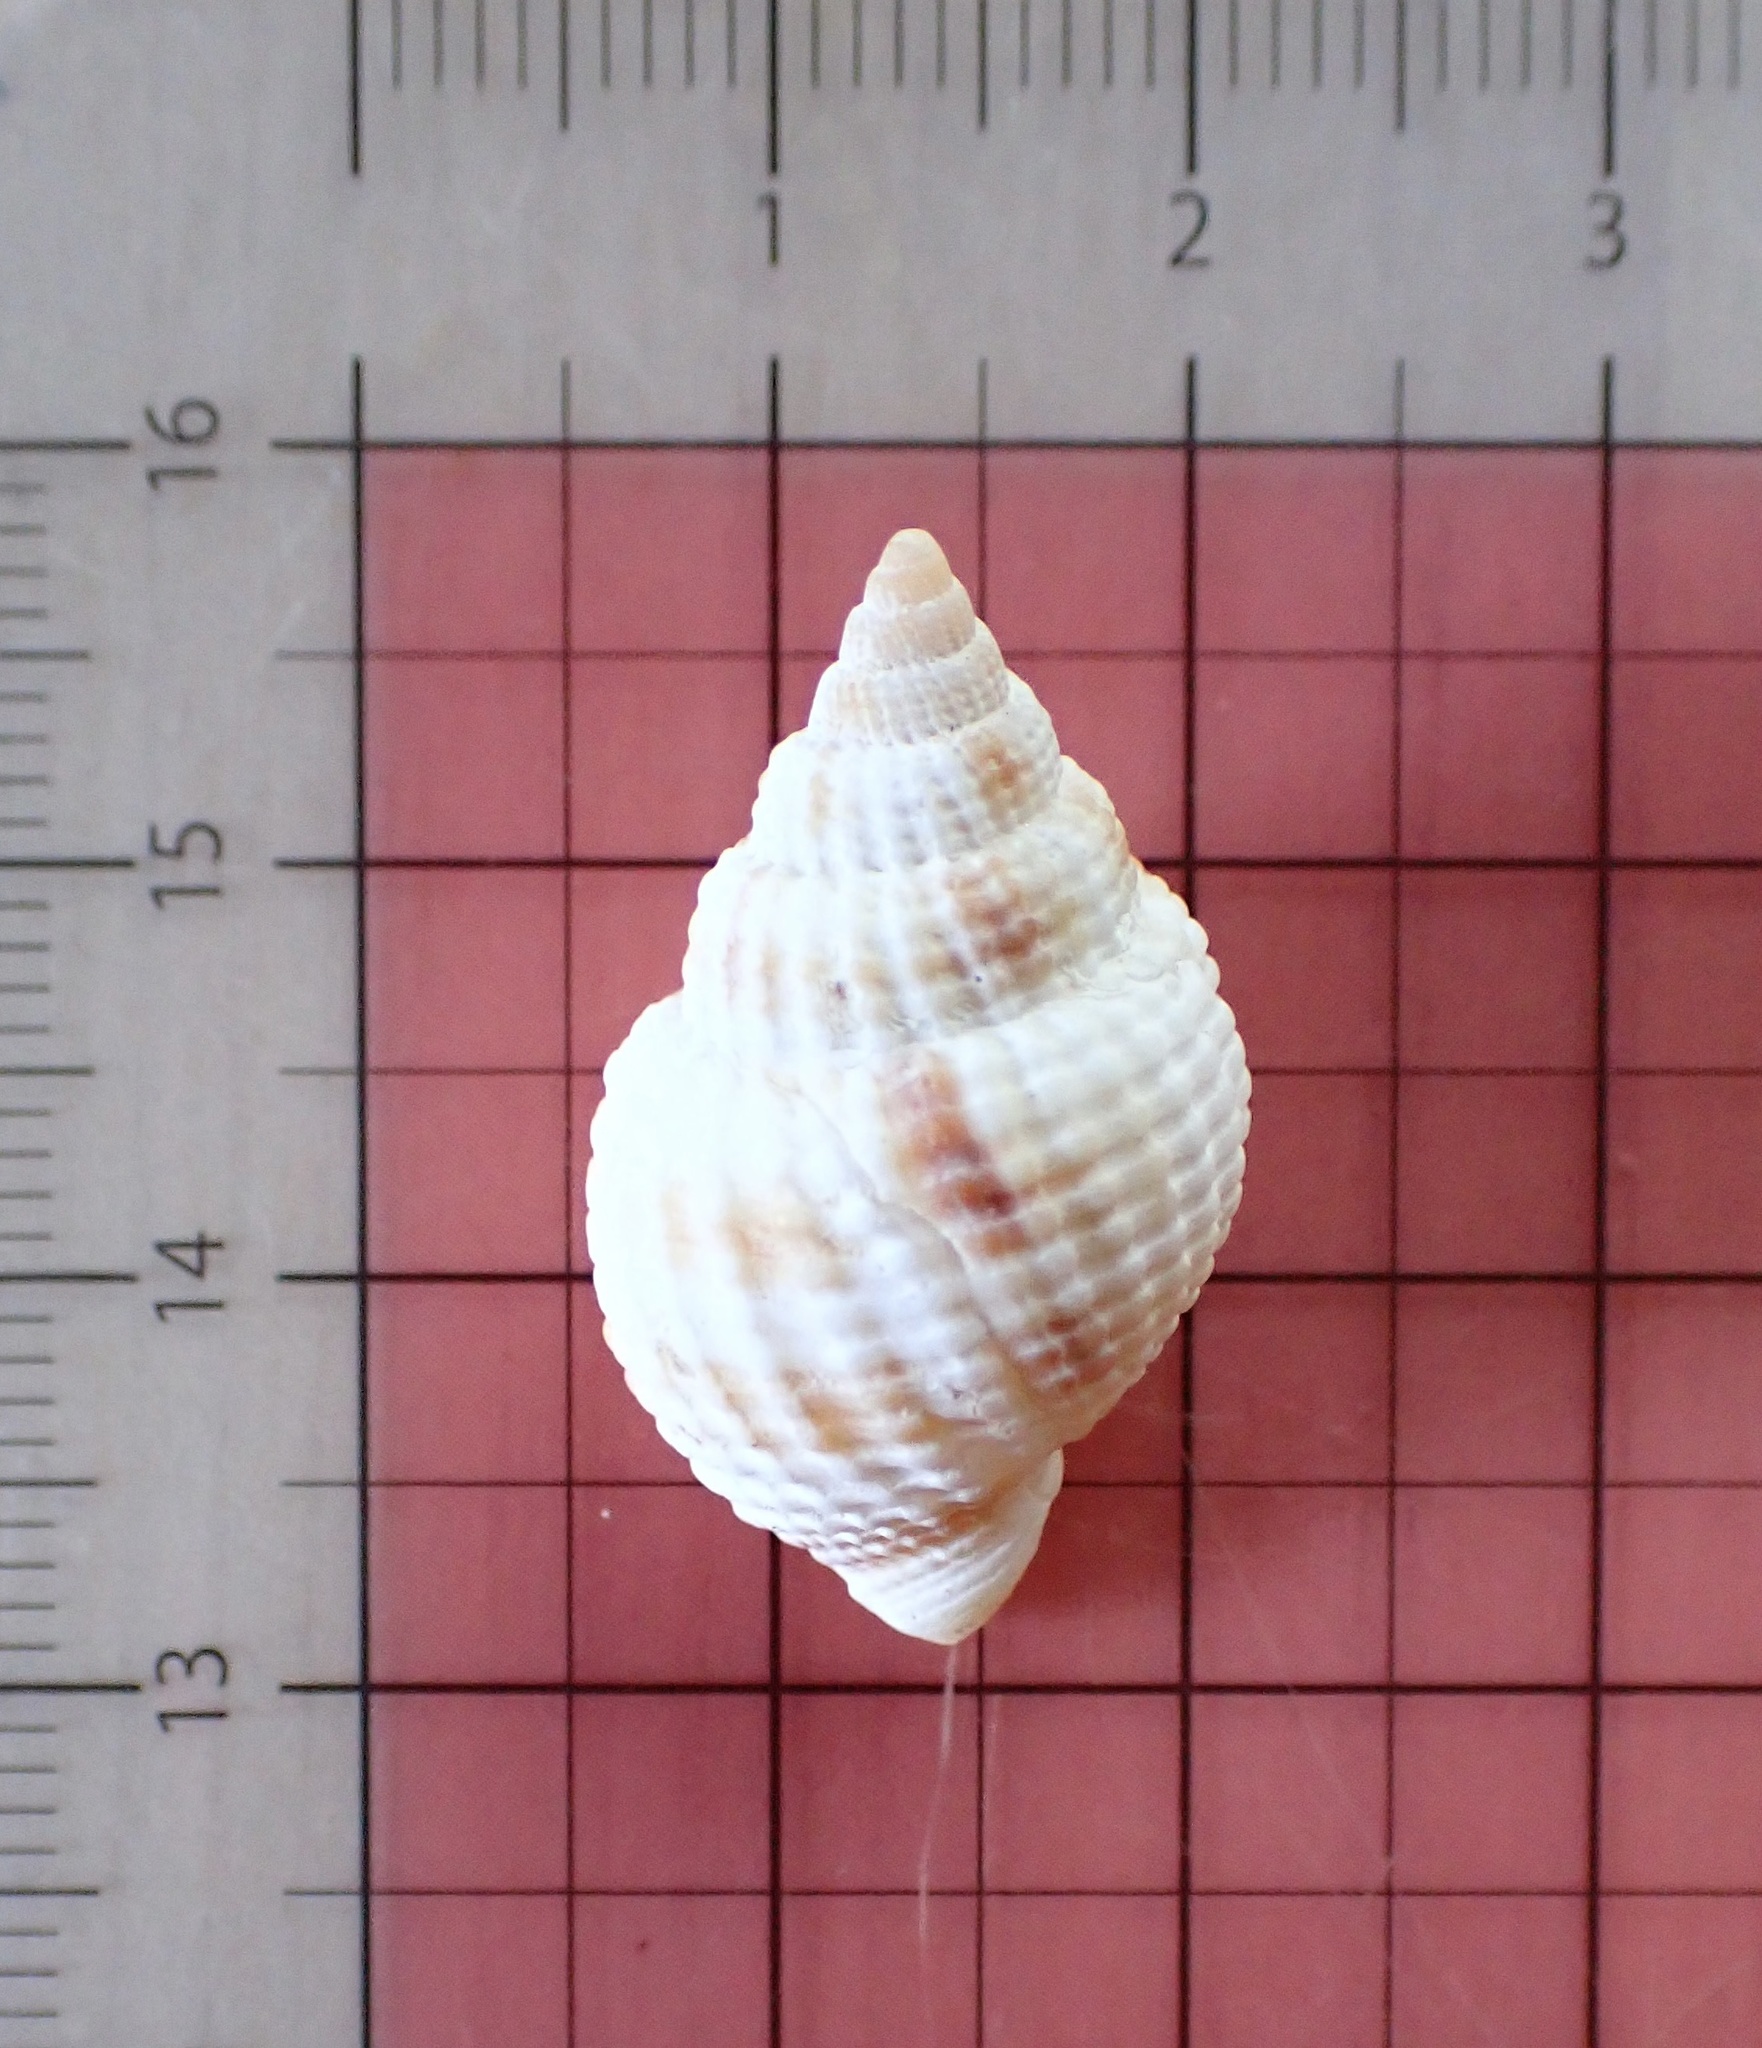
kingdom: Animalia
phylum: Mollusca
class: Gastropoda
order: Neogastropoda
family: Cancellariidae
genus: Cancellaria
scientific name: Cancellaria reticulata
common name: Common nutmeg
